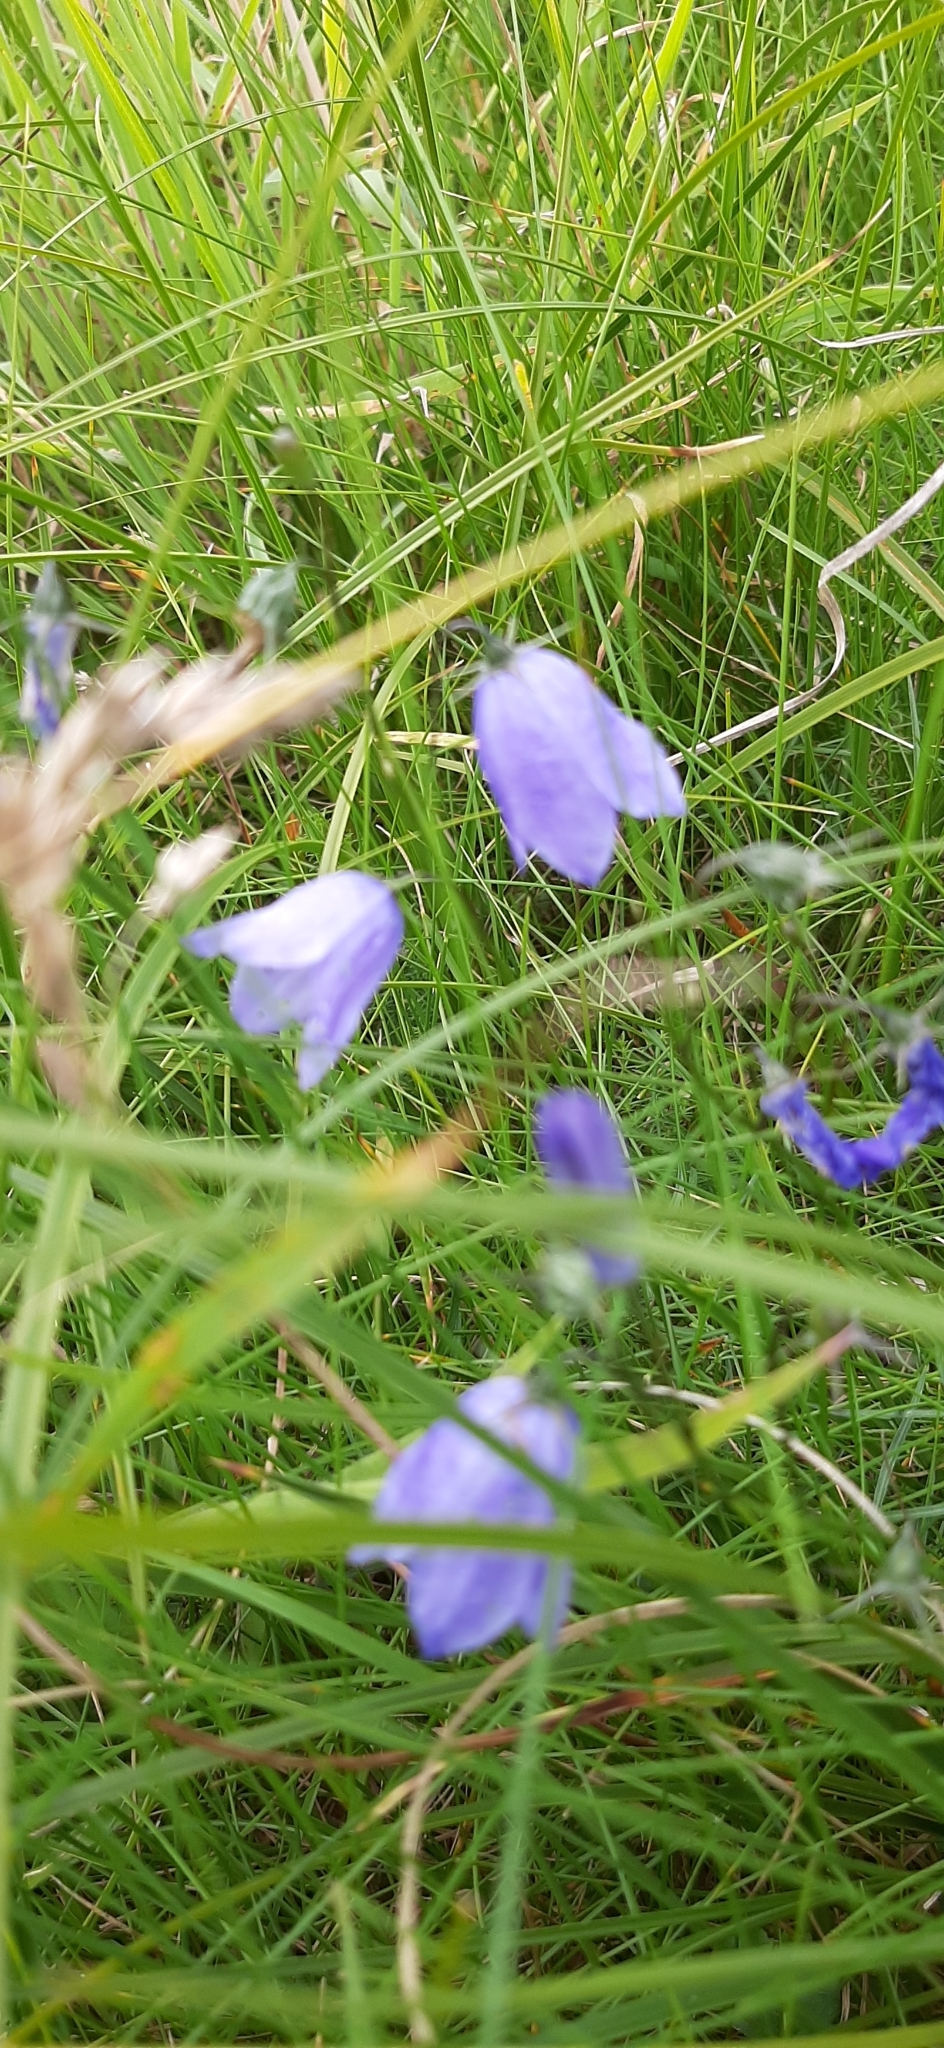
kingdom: Plantae
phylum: Tracheophyta
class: Magnoliopsida
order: Asterales
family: Campanulaceae
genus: Campanula
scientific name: Campanula rotundifolia
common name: Harebell
